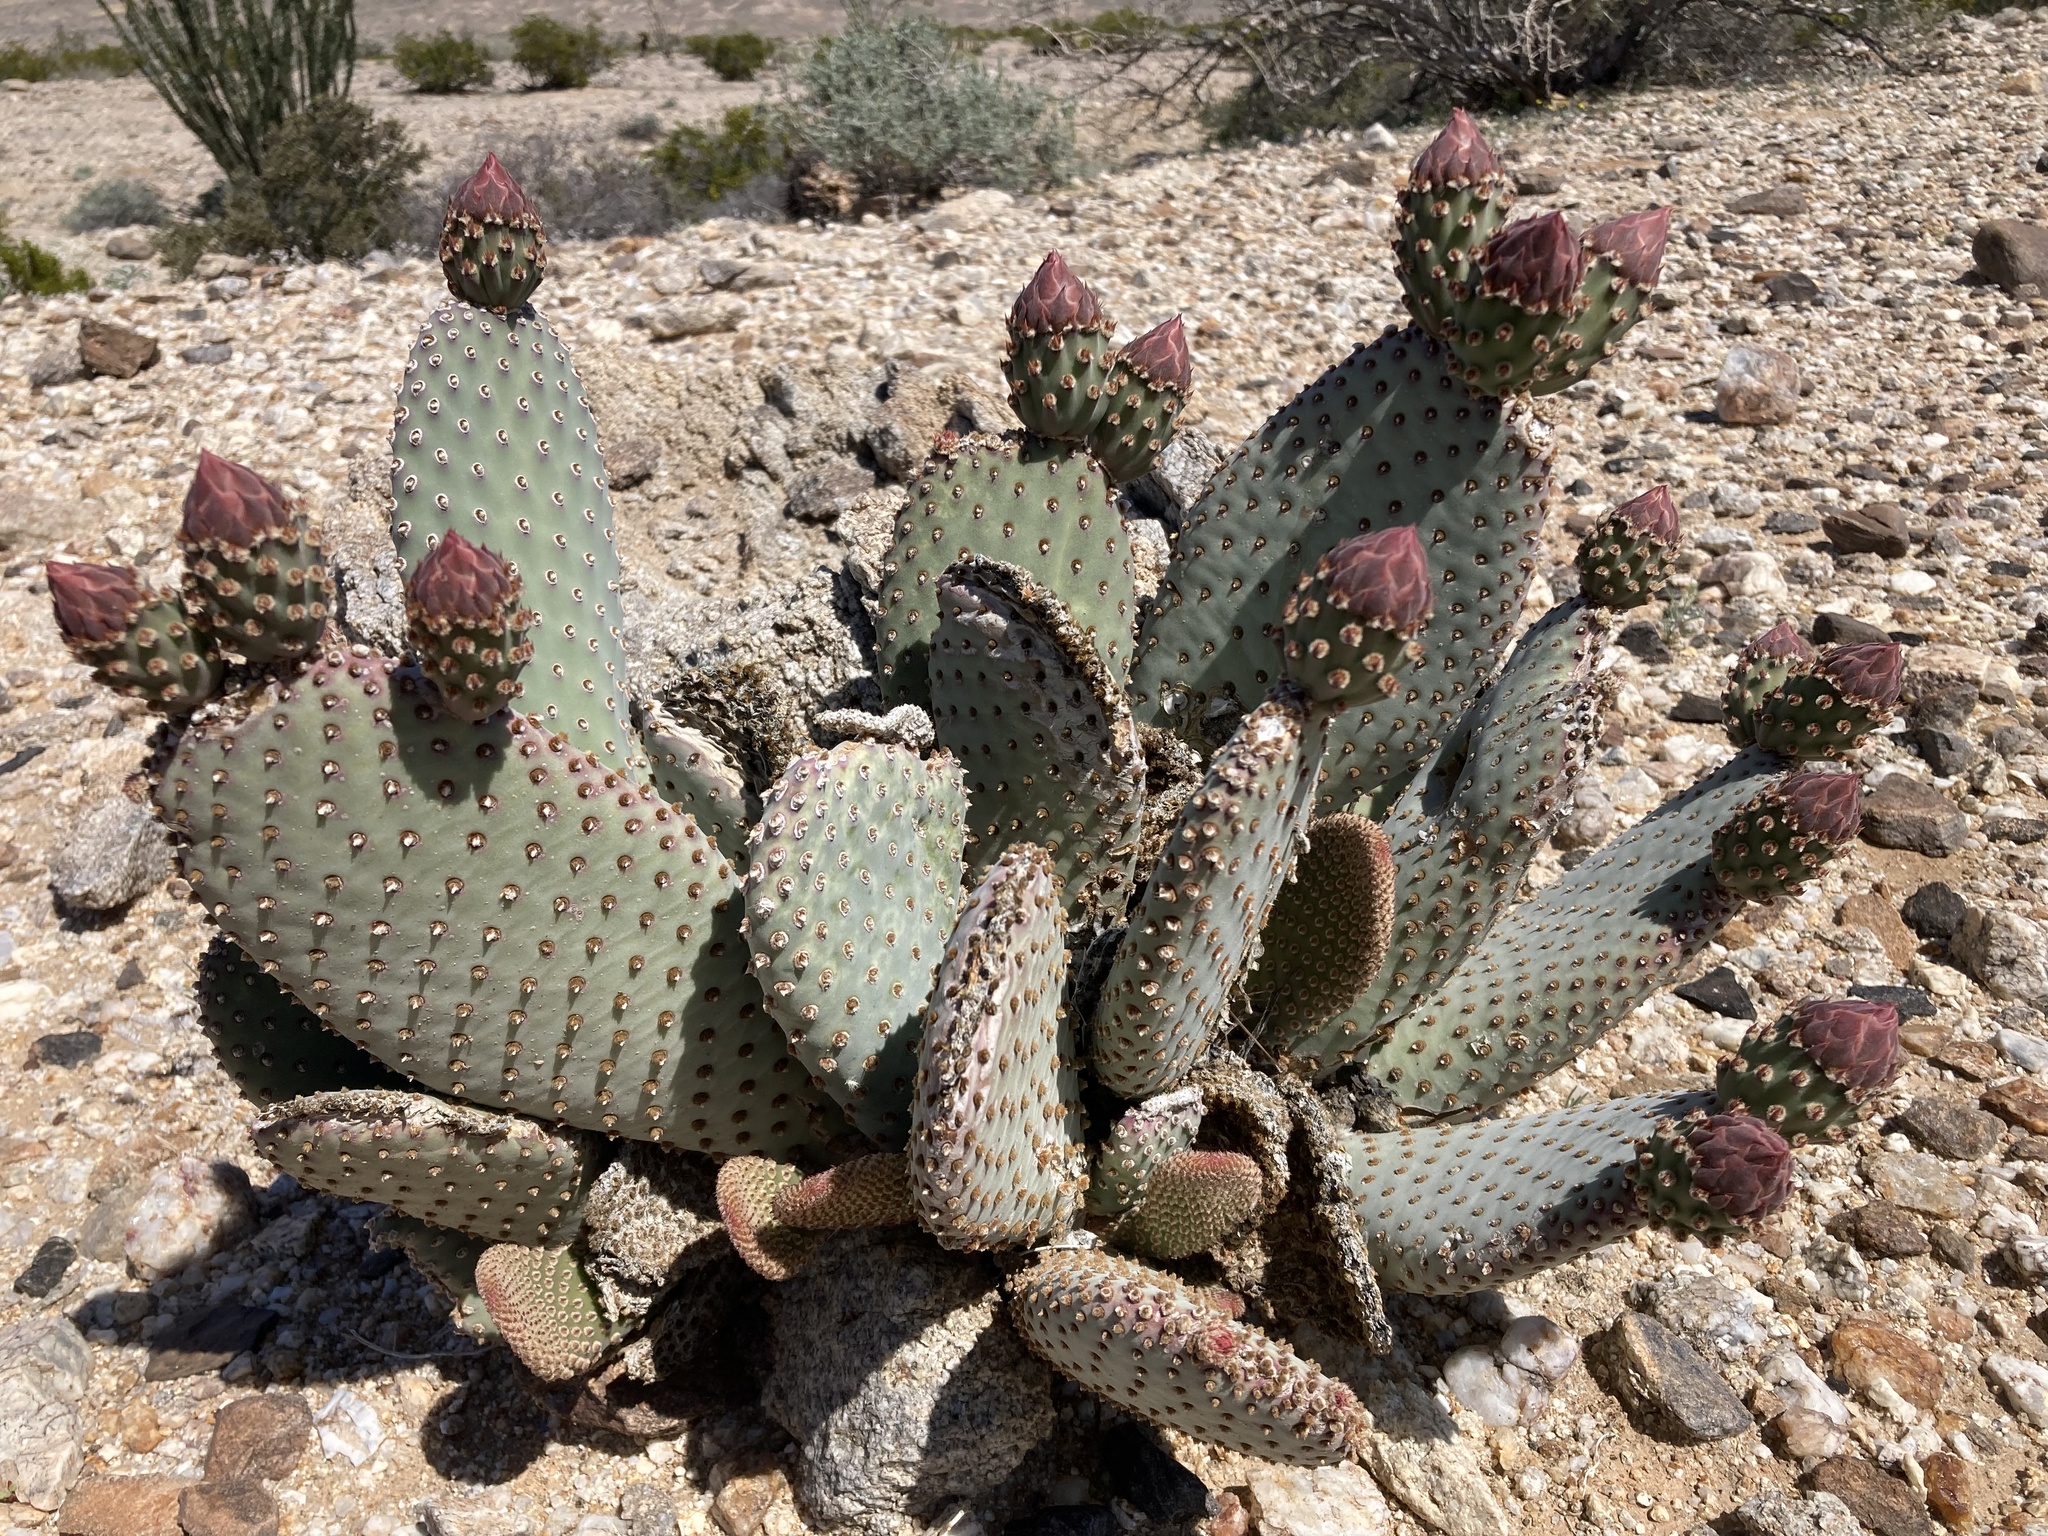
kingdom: Plantae
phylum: Tracheophyta
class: Magnoliopsida
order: Caryophyllales
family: Cactaceae
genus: Opuntia
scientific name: Opuntia basilaris
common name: Beavertail prickly-pear
